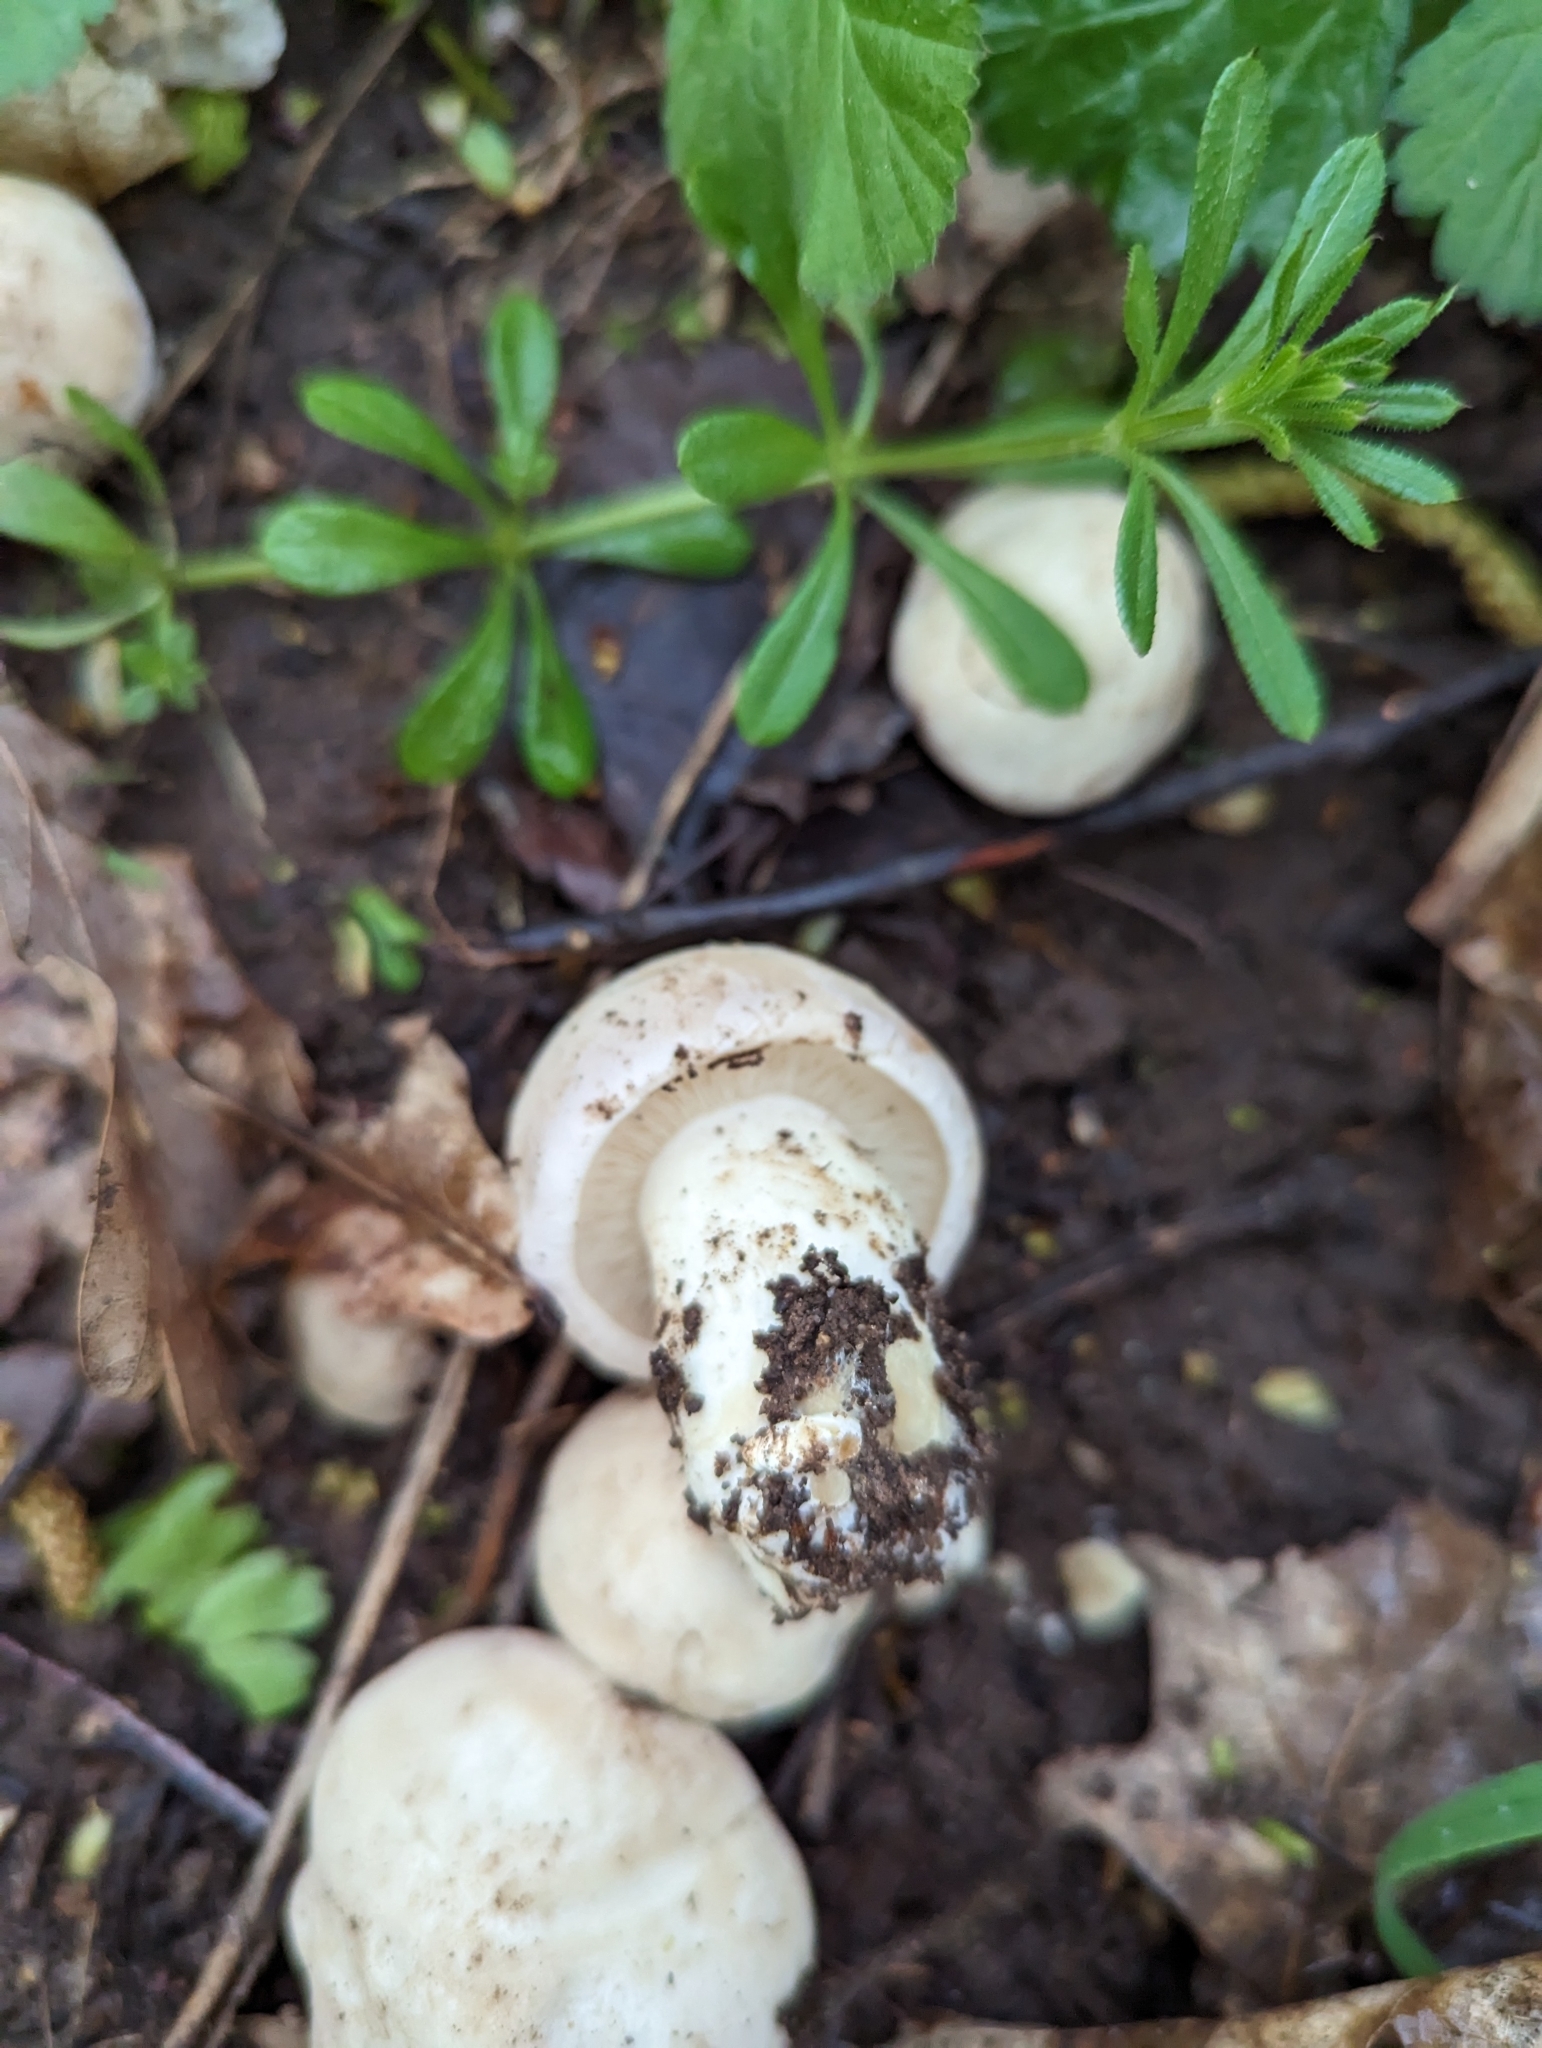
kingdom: Fungi
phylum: Basidiomycota
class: Agaricomycetes
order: Agaricales
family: Lyophyllaceae
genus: Calocybe
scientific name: Calocybe gambosa
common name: St. george's mushroom
